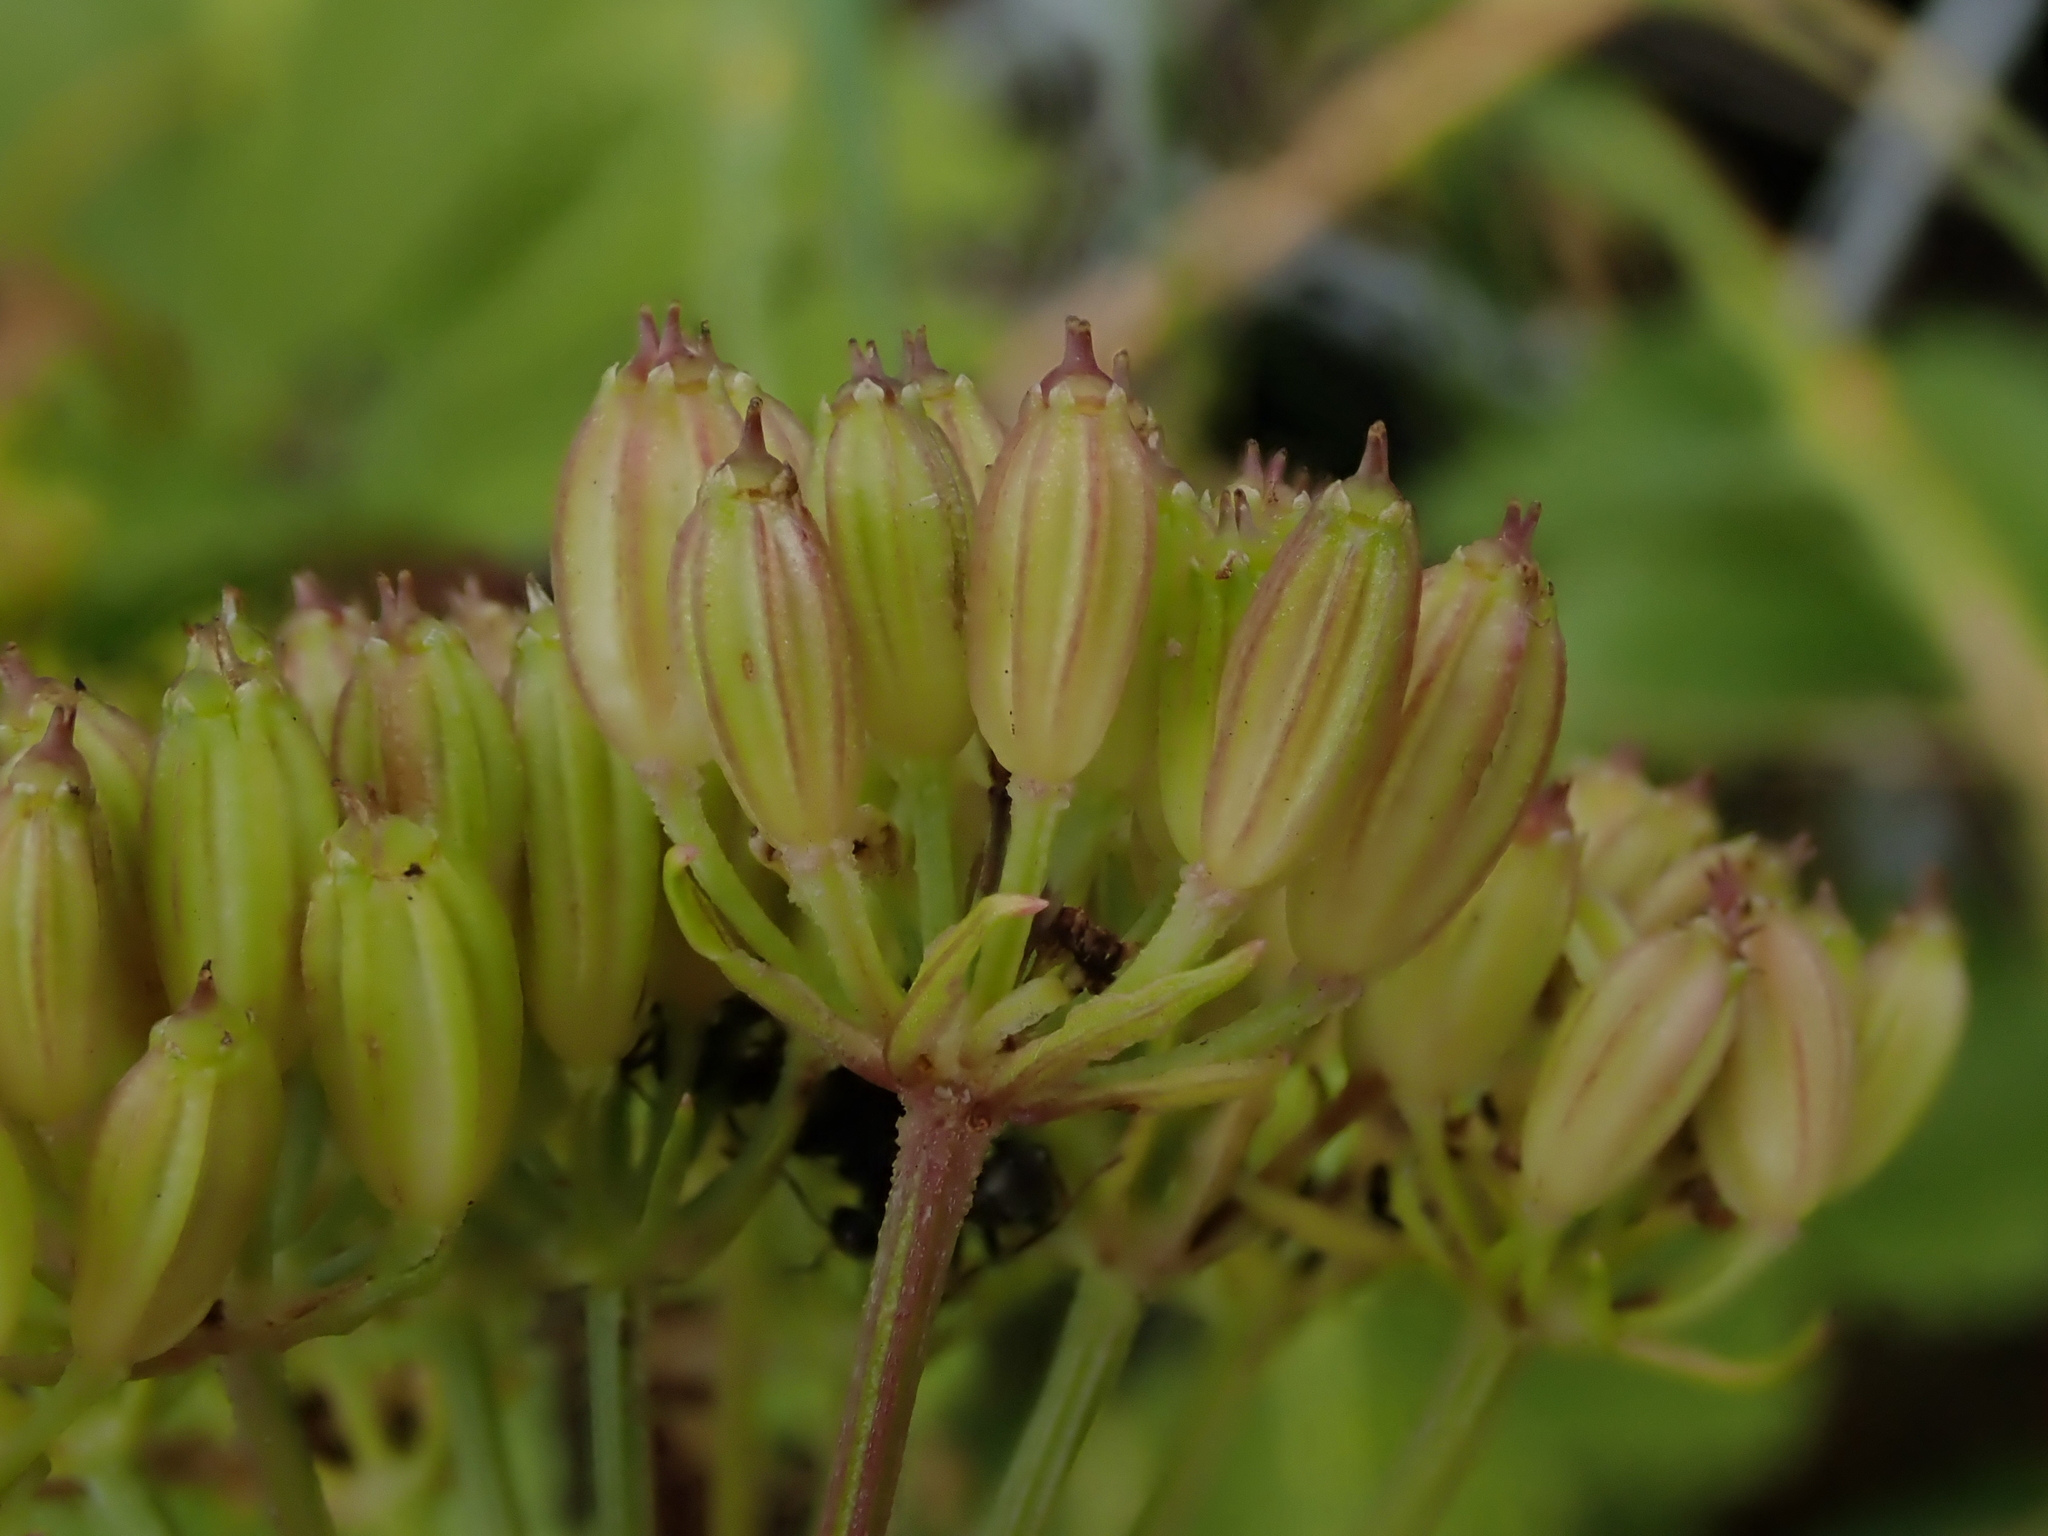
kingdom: Plantae
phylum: Tracheophyta
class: Magnoliopsida
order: Apiales
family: Apiaceae
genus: Ligusticum
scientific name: Ligusticum scothicum
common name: Beach lovage
